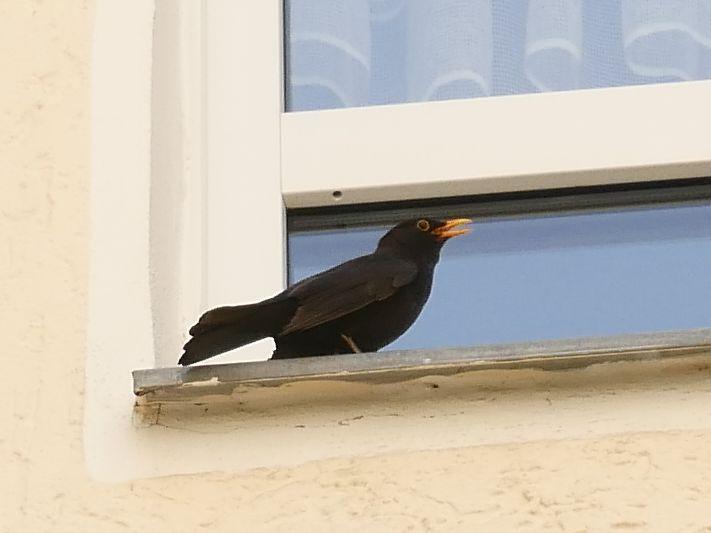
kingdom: Animalia
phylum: Chordata
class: Aves
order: Passeriformes
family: Turdidae
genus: Turdus
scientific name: Turdus merula
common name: Common blackbird
